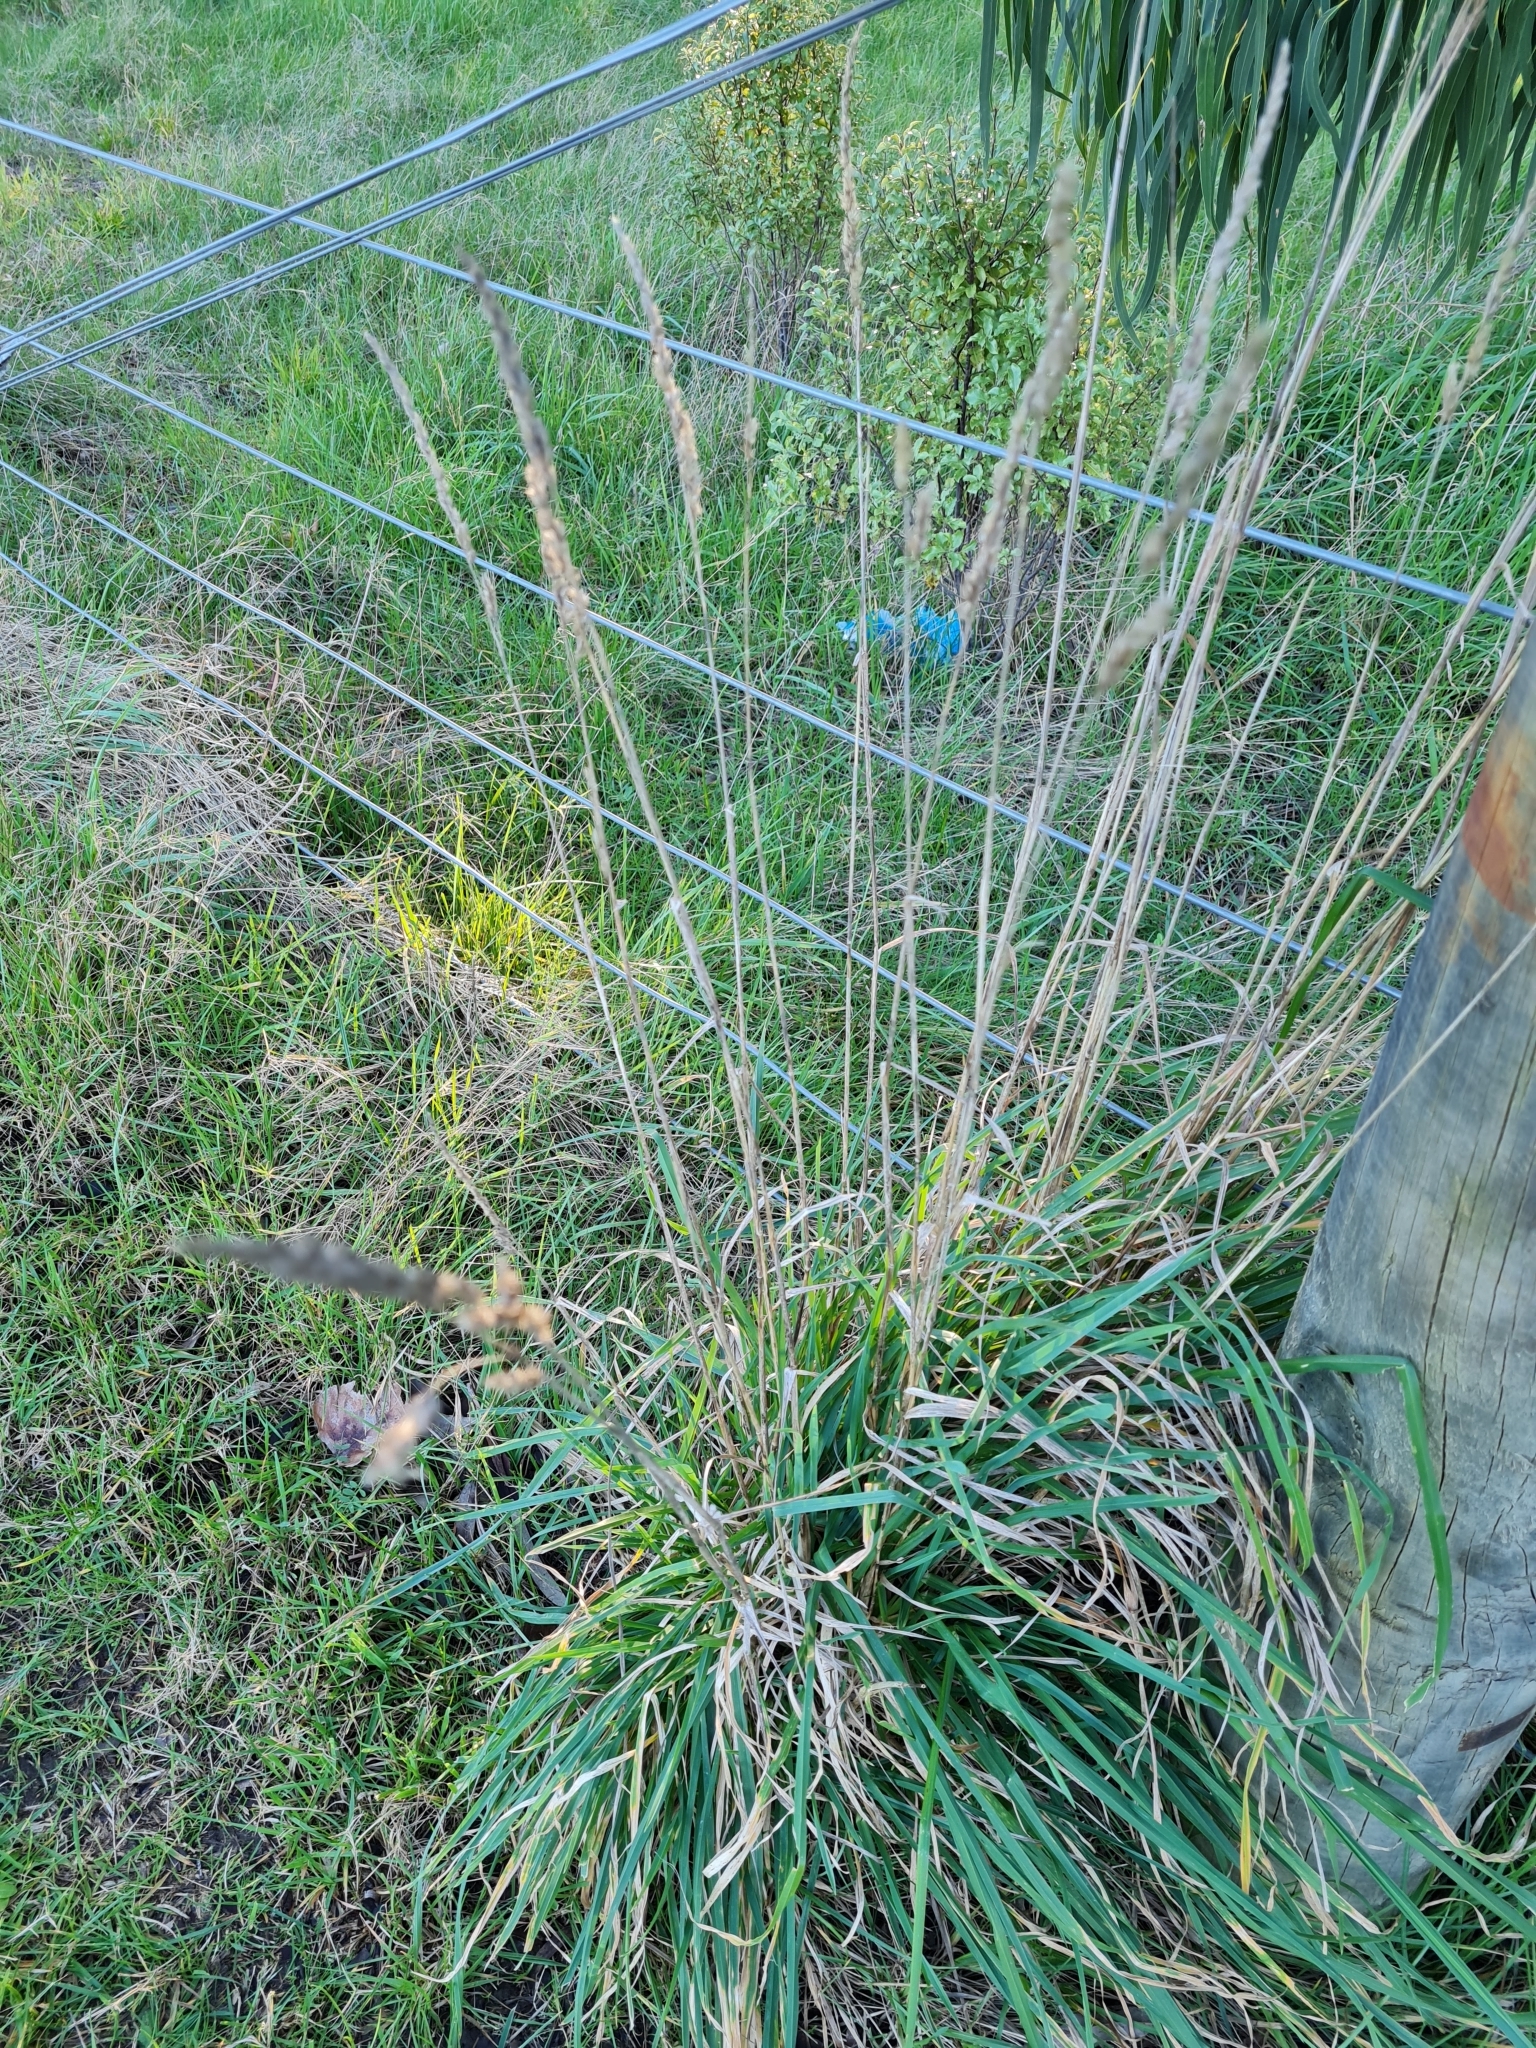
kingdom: Plantae
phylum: Tracheophyta
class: Liliopsida
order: Poales
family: Poaceae
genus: Dactylis
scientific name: Dactylis glomerata
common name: Orchardgrass
